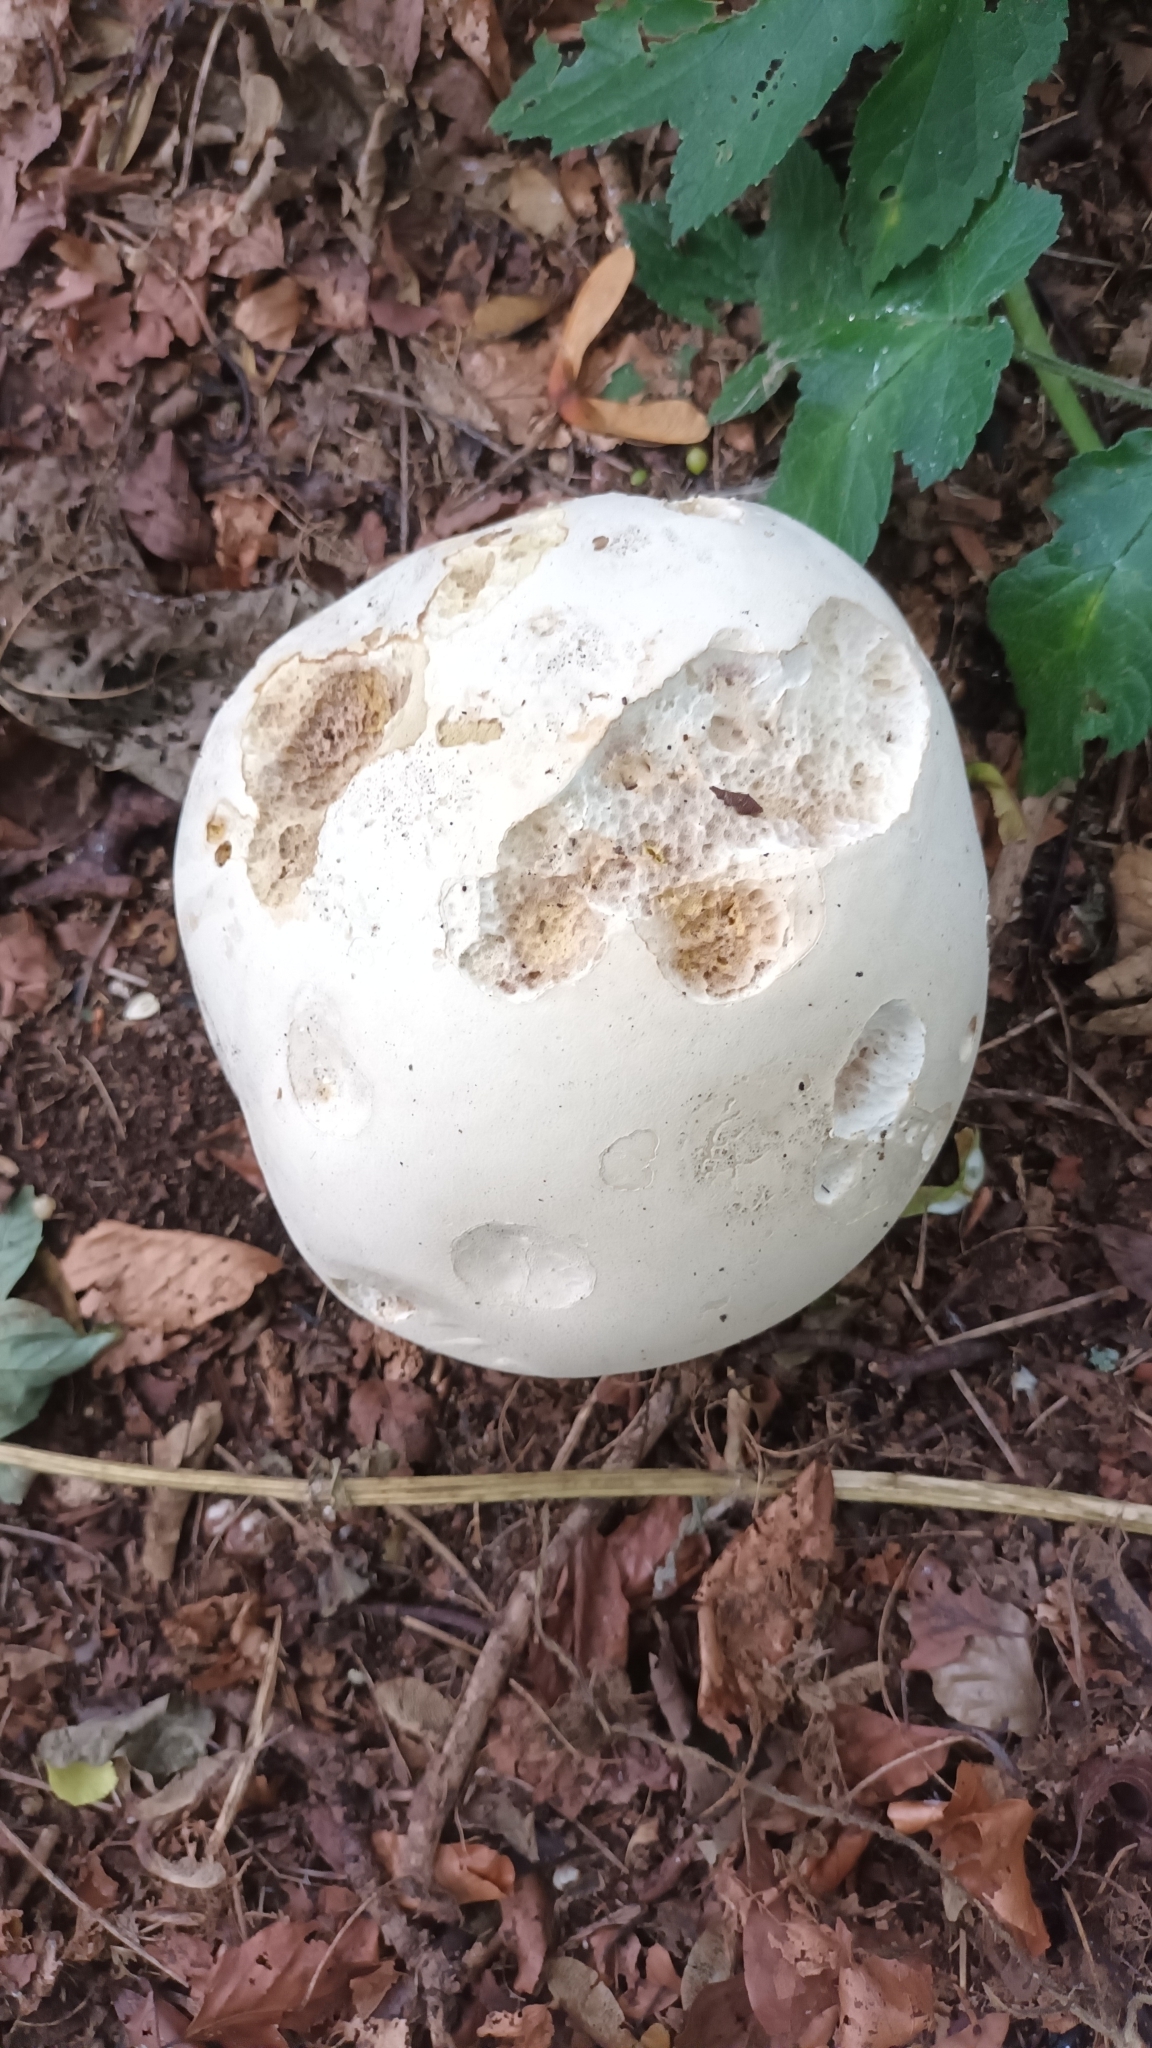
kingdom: Fungi
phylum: Basidiomycota
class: Agaricomycetes
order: Agaricales
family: Lycoperdaceae
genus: Calvatia
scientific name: Calvatia gigantea
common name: Giant puffball
